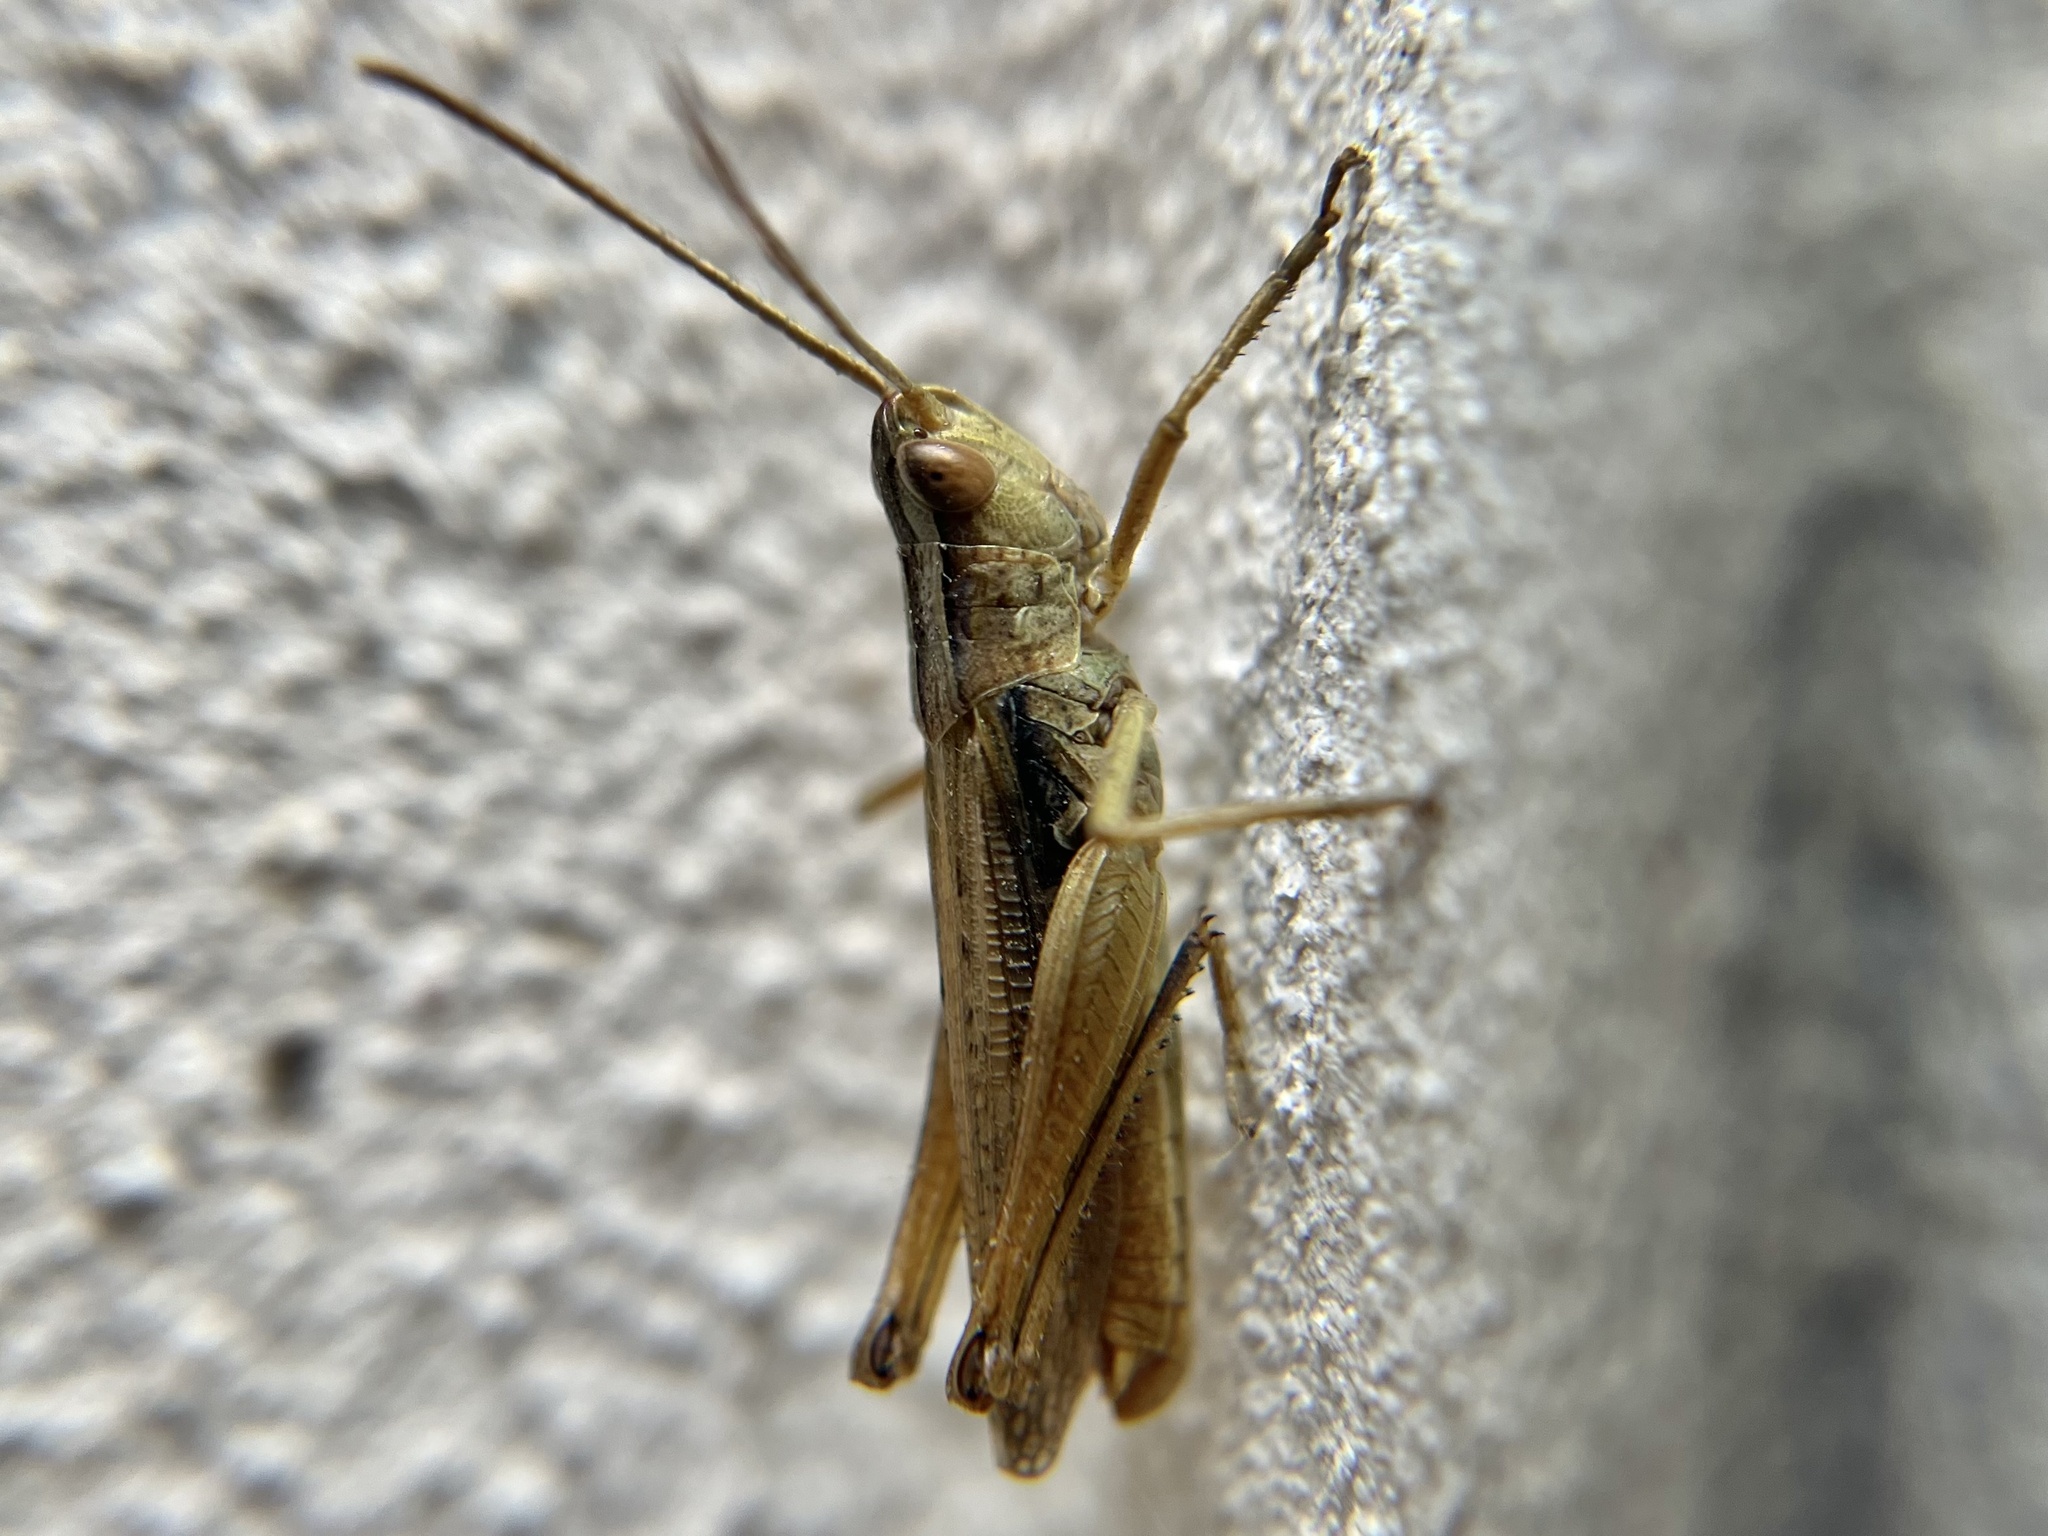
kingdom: Animalia
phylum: Arthropoda
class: Insecta
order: Orthoptera
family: Acrididae
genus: Chorthippus
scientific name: Chorthippus albomarginatus
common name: Lesser marsh grasshopper
